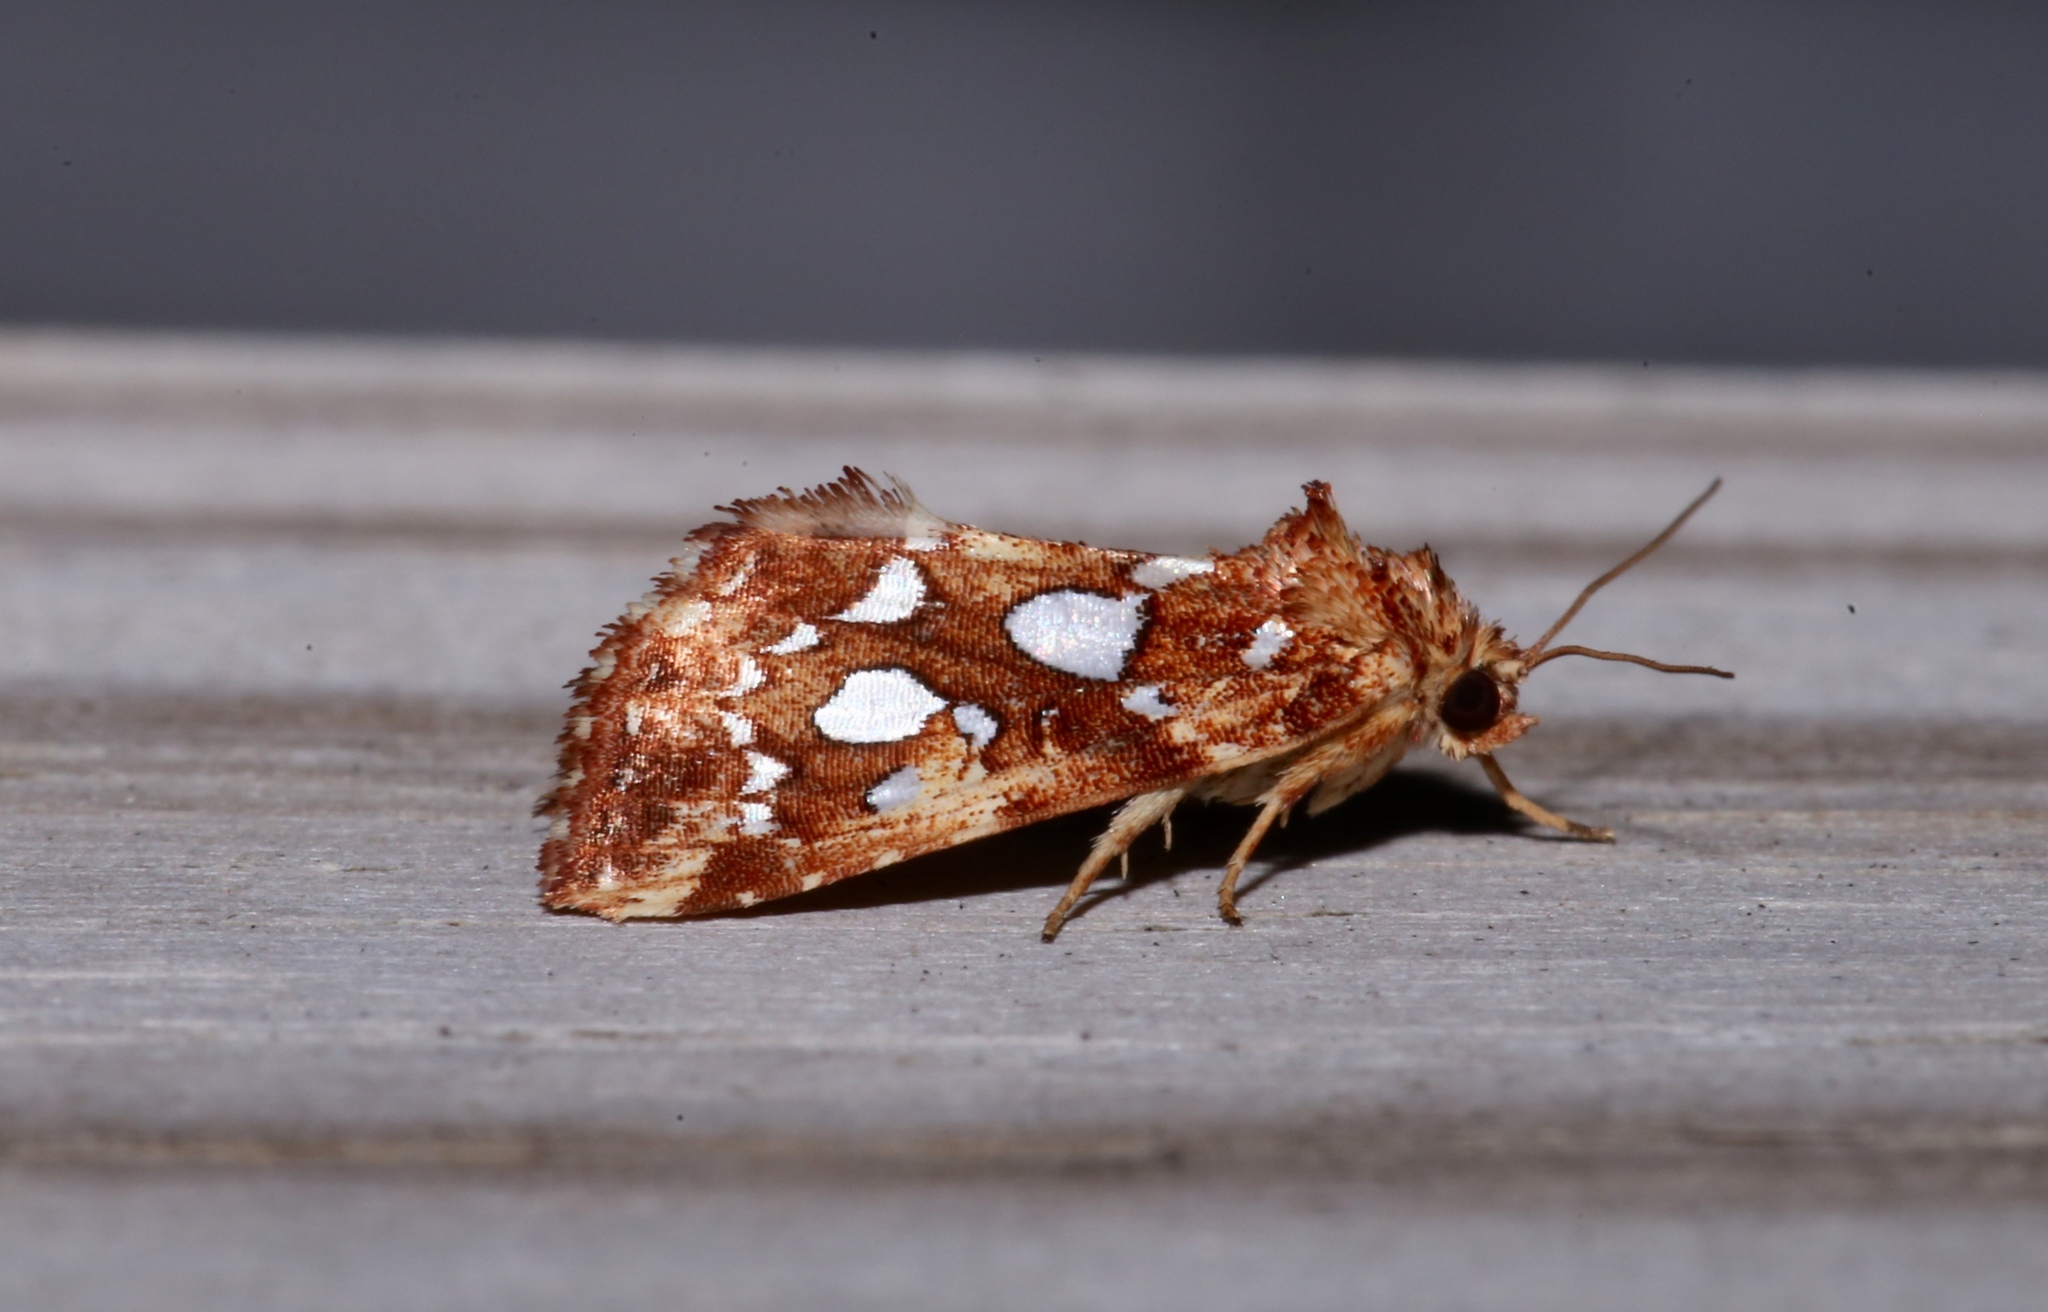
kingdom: Animalia
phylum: Arthropoda
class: Insecta
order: Lepidoptera
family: Noctuidae
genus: Callopistria
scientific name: Callopistria cordata
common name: Silver-spotted fern moth
